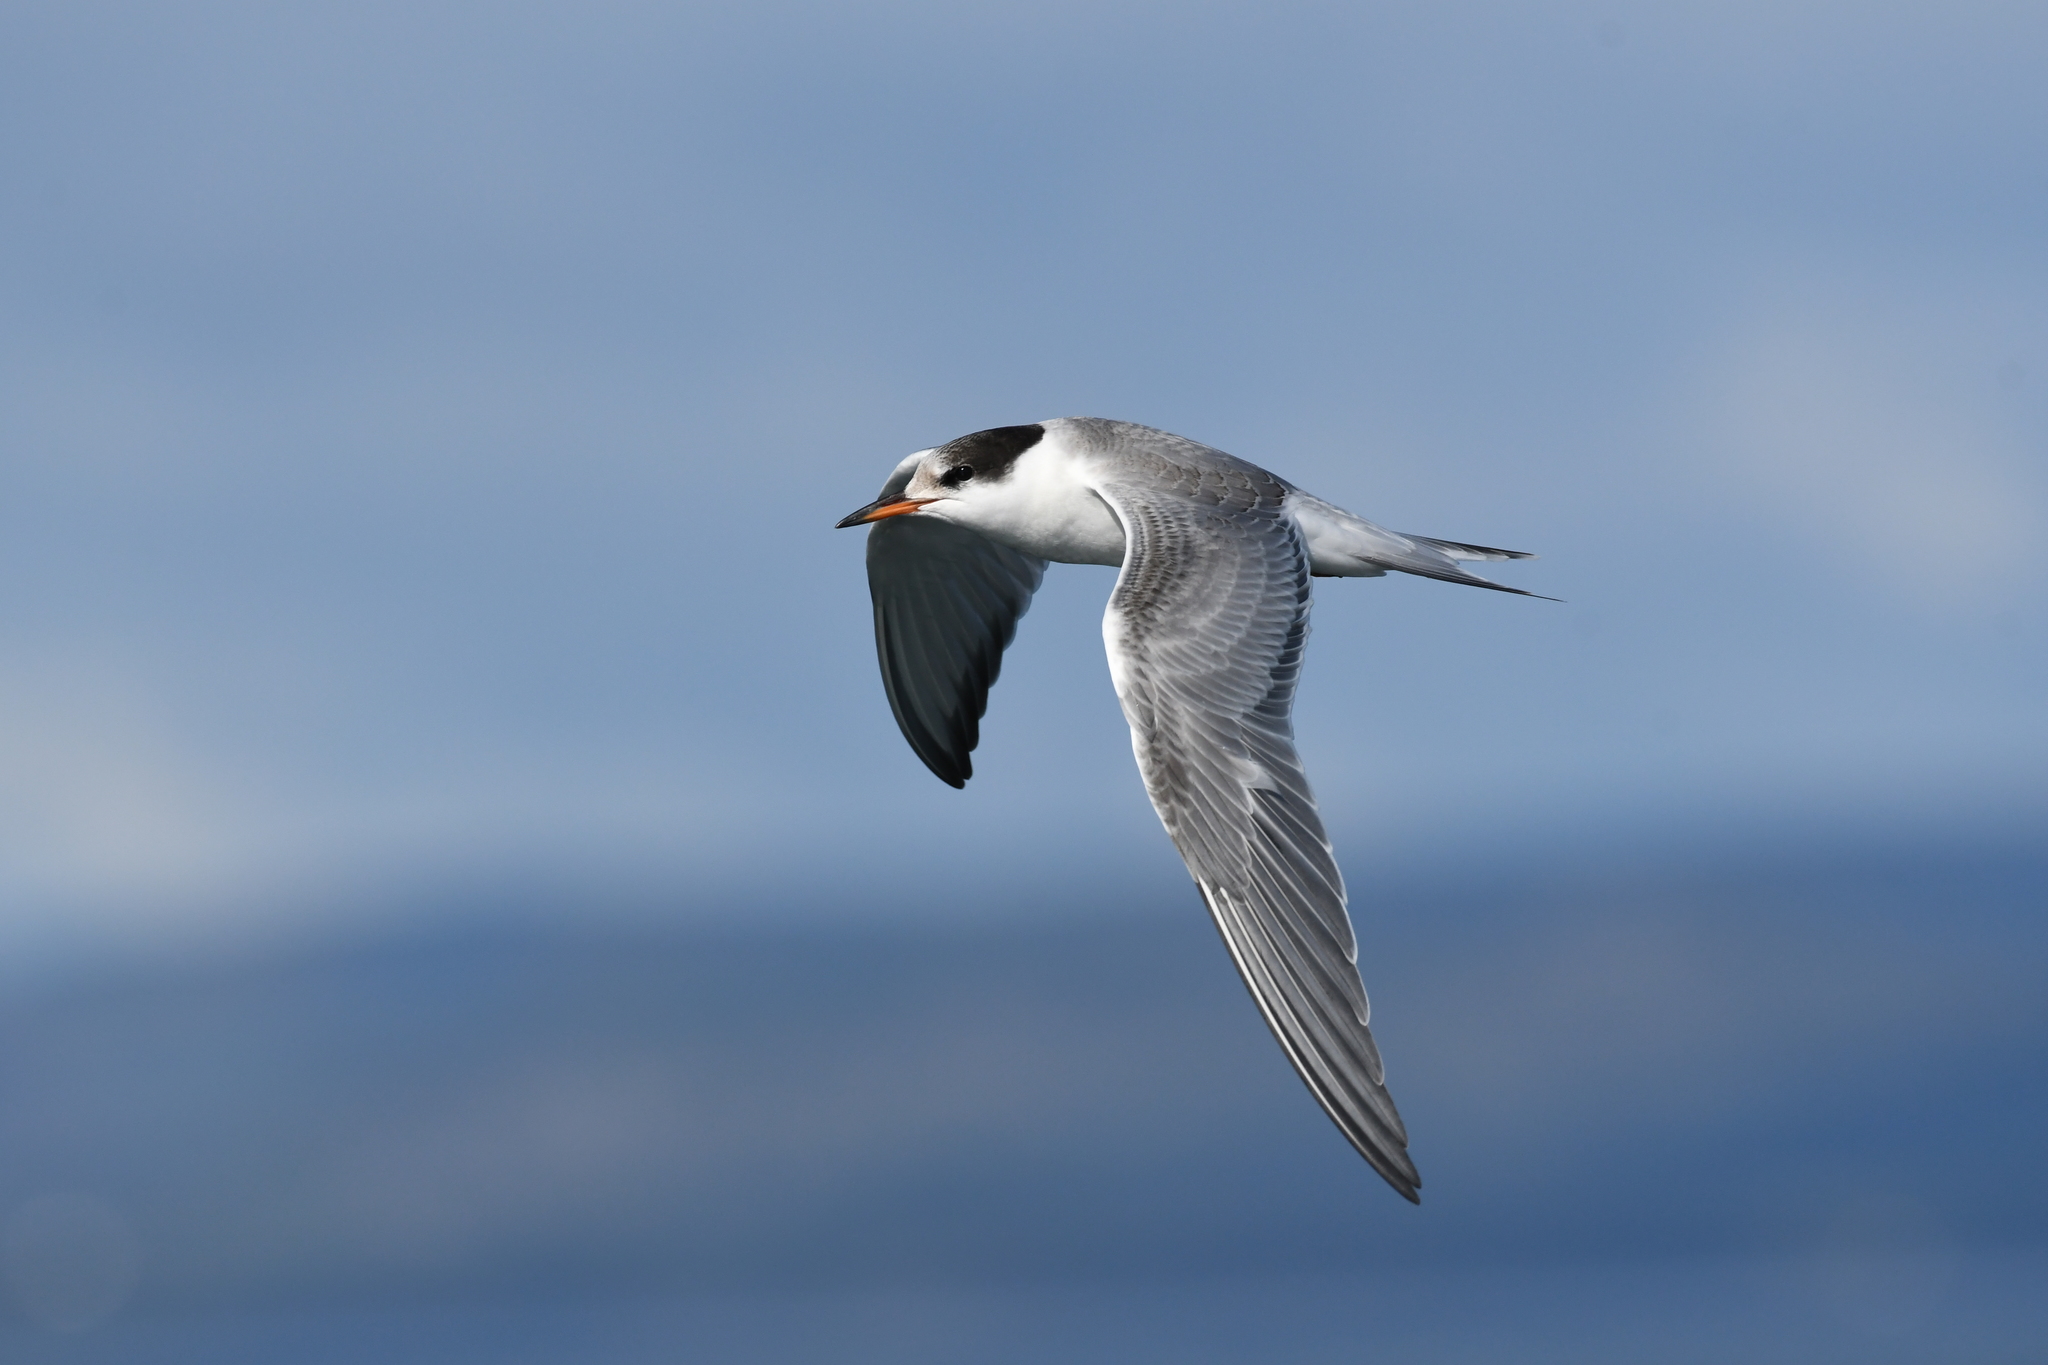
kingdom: Animalia
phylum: Chordata
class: Aves
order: Charadriiformes
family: Laridae
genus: Sterna
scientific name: Sterna hirundo
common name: Common tern
